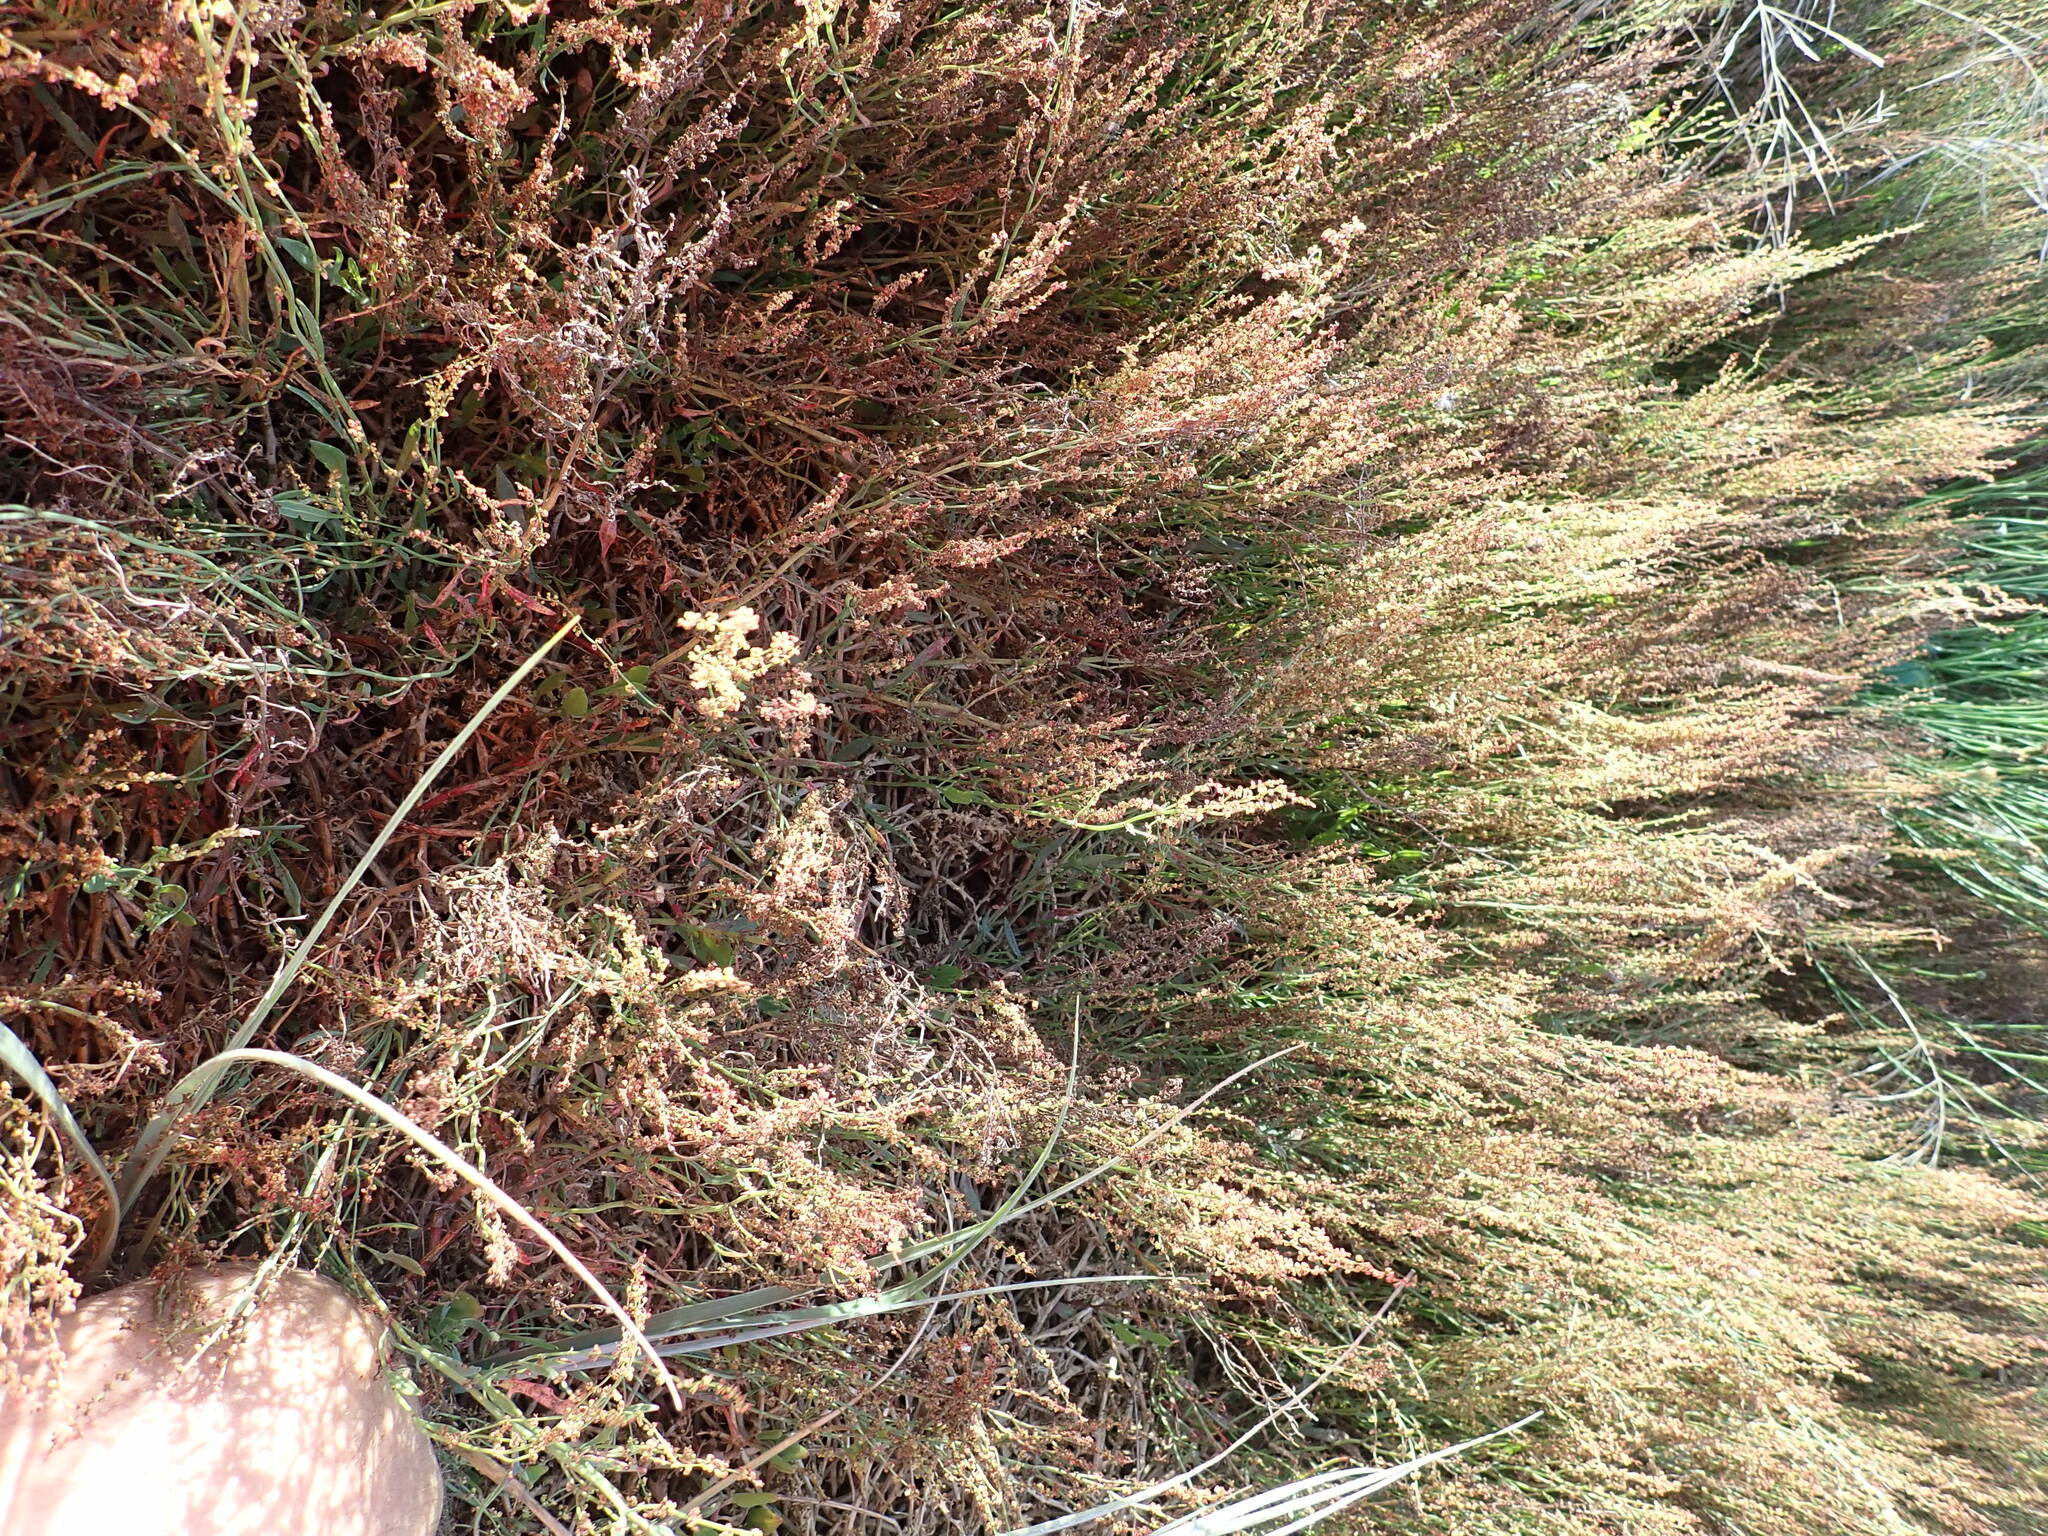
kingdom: Plantae
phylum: Tracheophyta
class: Magnoliopsida
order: Caryophyllales
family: Polygonaceae
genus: Rumex
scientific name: Rumex acetosella
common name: Common sheep sorrel
